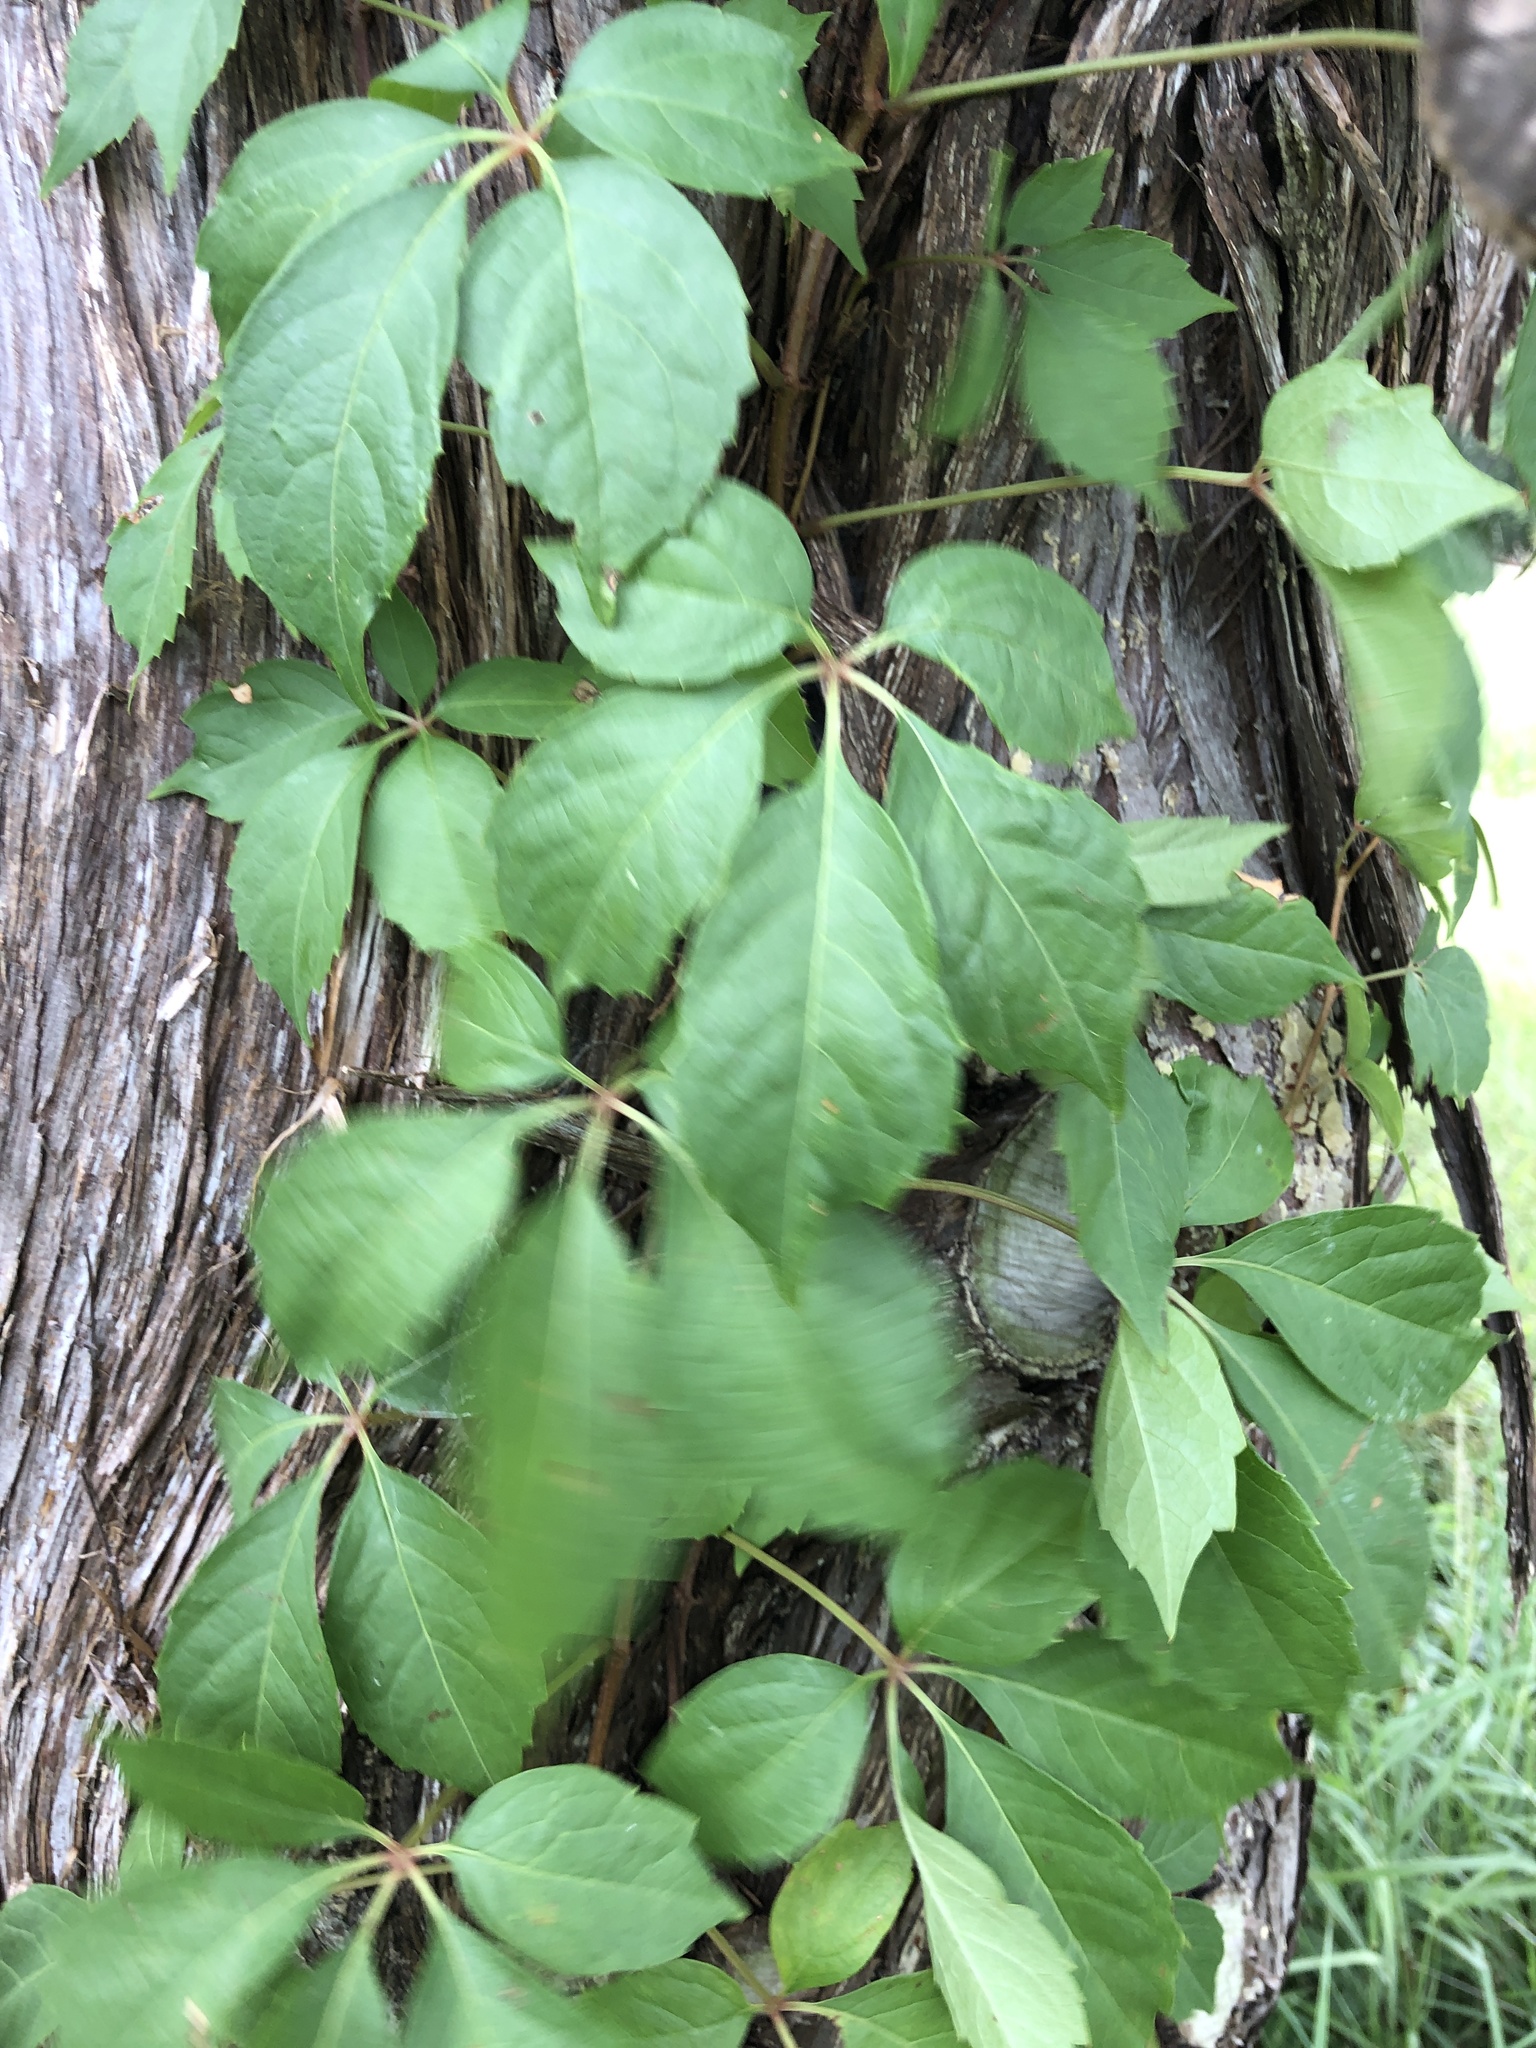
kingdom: Plantae
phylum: Tracheophyta
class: Magnoliopsida
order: Vitales
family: Vitaceae
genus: Parthenocissus
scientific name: Parthenocissus quinquefolia
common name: Virginia-creeper
